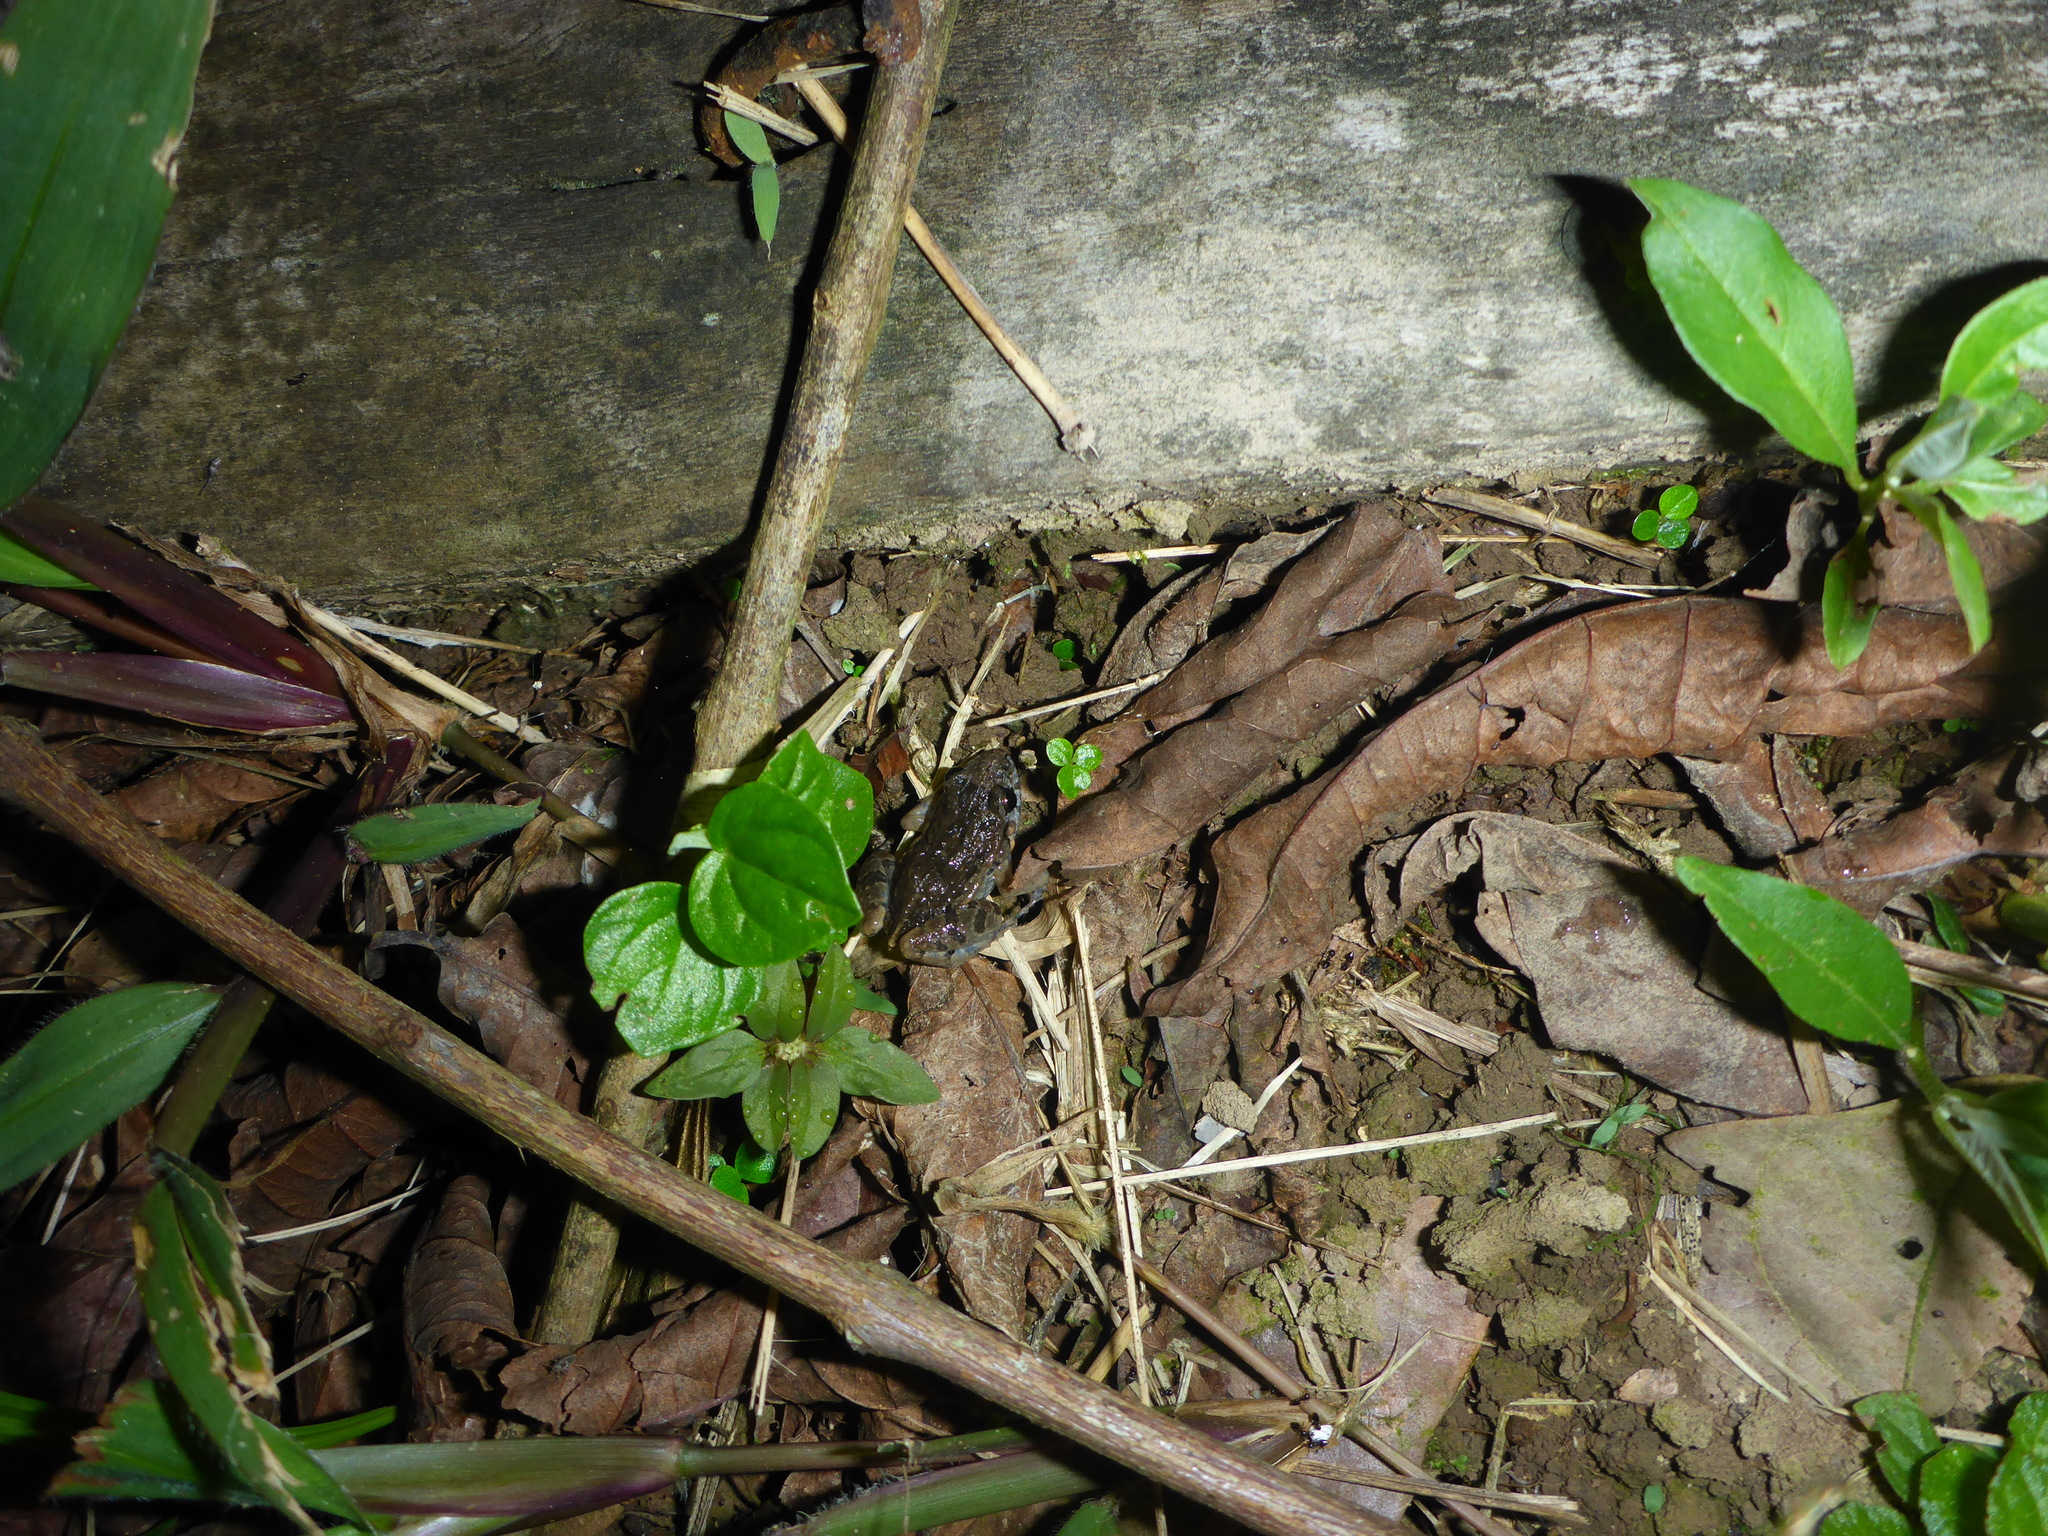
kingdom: Animalia
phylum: Chordata
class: Amphibia
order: Anura
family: Leptodactylidae
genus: Adenomera
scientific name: Adenomera andreae
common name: Lowland tropical bullfrog
